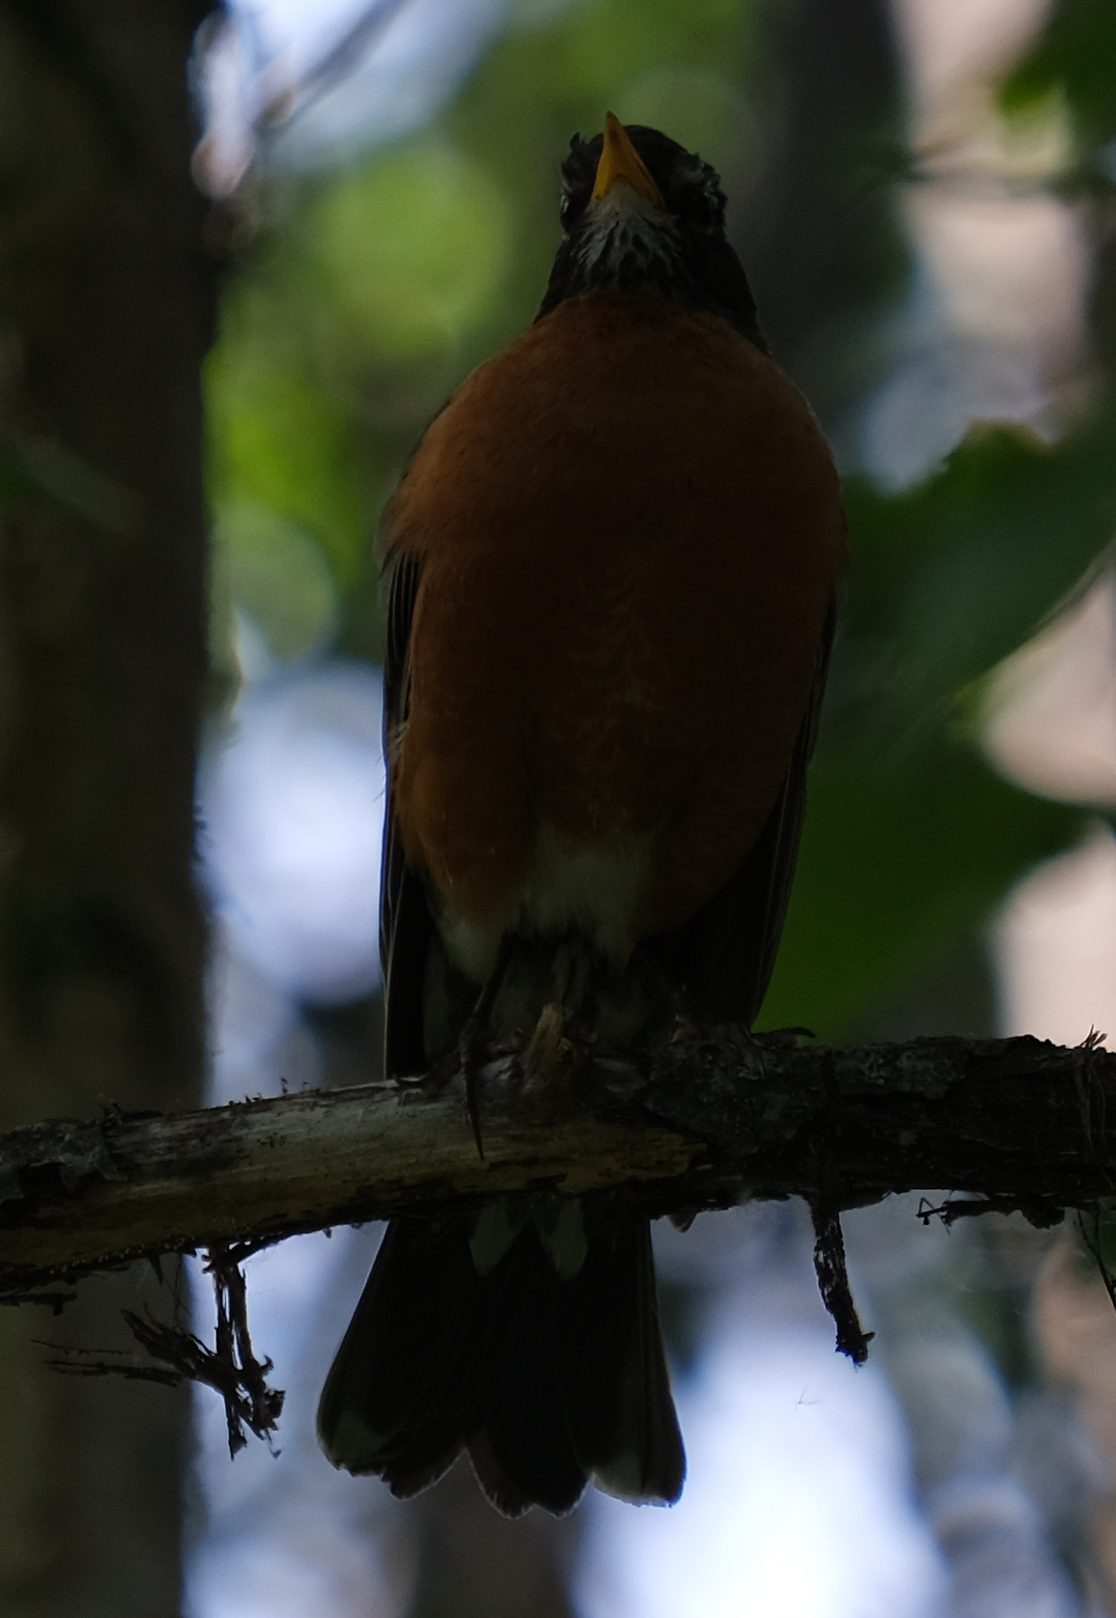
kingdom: Animalia
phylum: Chordata
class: Aves
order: Passeriformes
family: Turdidae
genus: Turdus
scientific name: Turdus migratorius
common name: American robin
